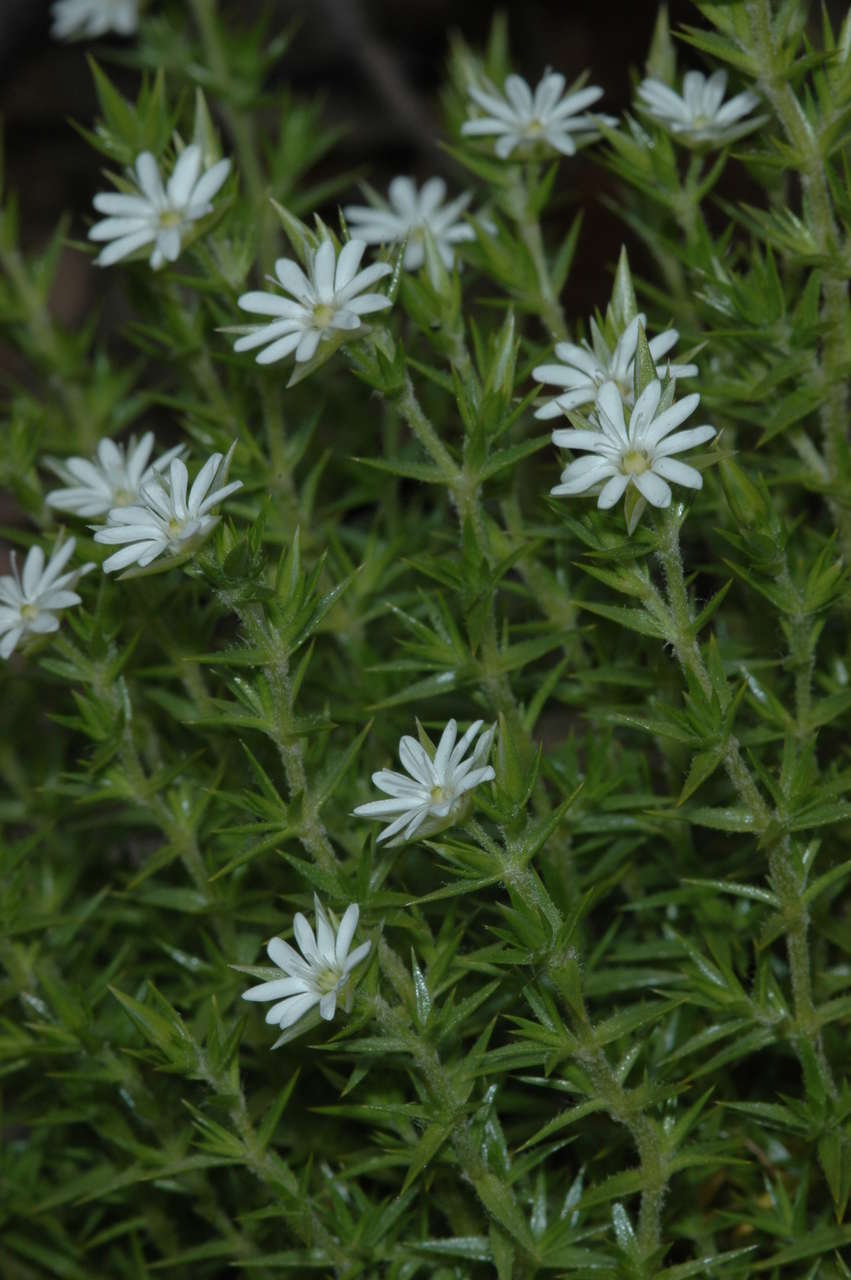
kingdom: Plantae
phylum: Tracheophyta
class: Magnoliopsida
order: Caryophyllales
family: Caryophyllaceae
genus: Stellaria
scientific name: Stellaria pungens
